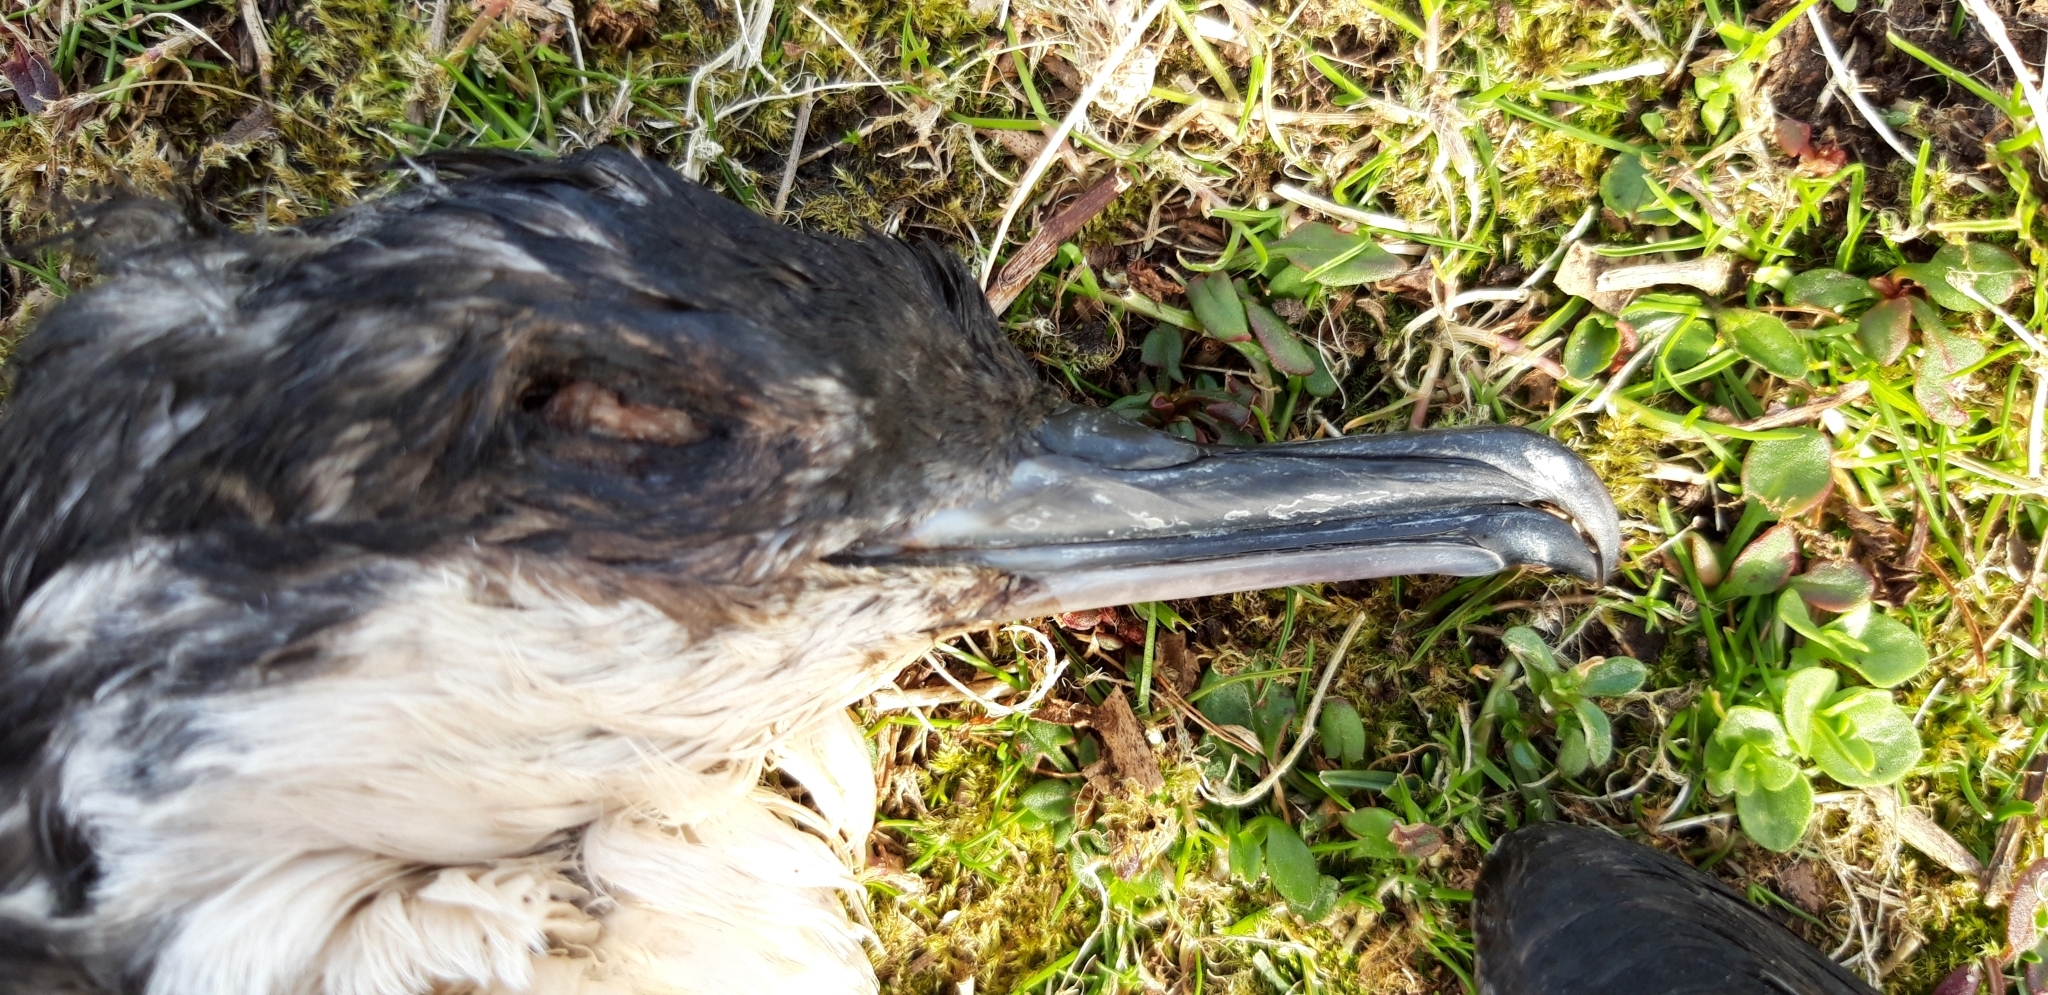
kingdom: Animalia
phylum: Chordata
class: Aves
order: Procellariiformes
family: Procellariidae
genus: Puffinus
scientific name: Puffinus puffinus
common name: Manx shearwater
